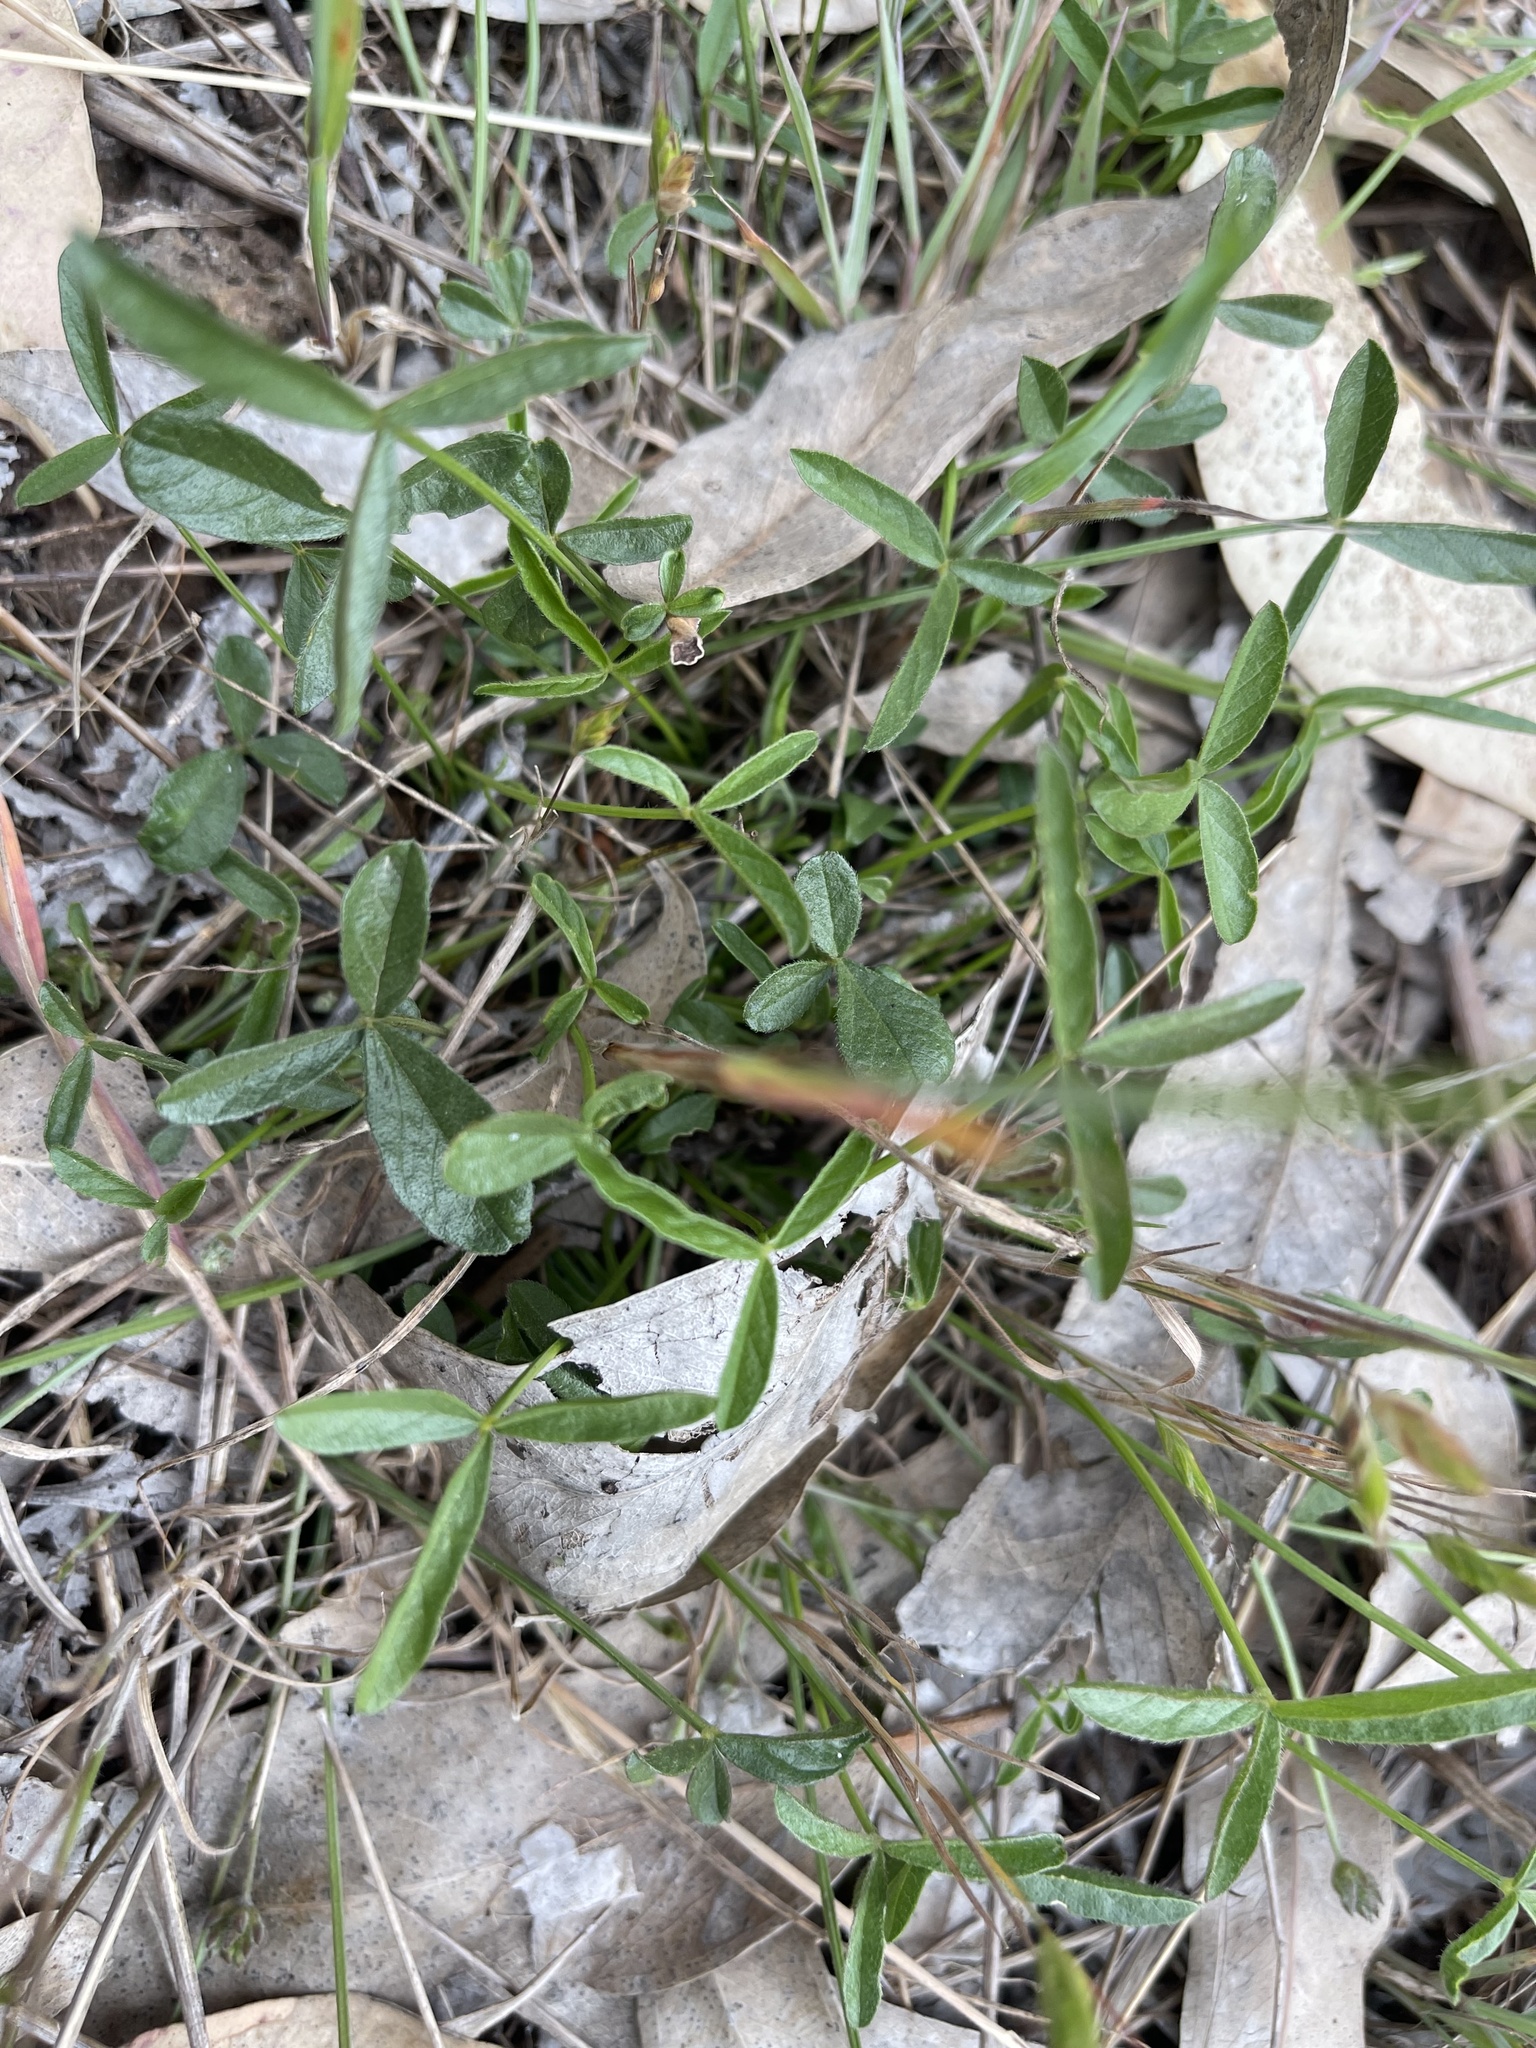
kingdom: Plantae
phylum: Tracheophyta
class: Magnoliopsida
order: Fabales
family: Fabaceae
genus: Cullen
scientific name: Cullen parvum
